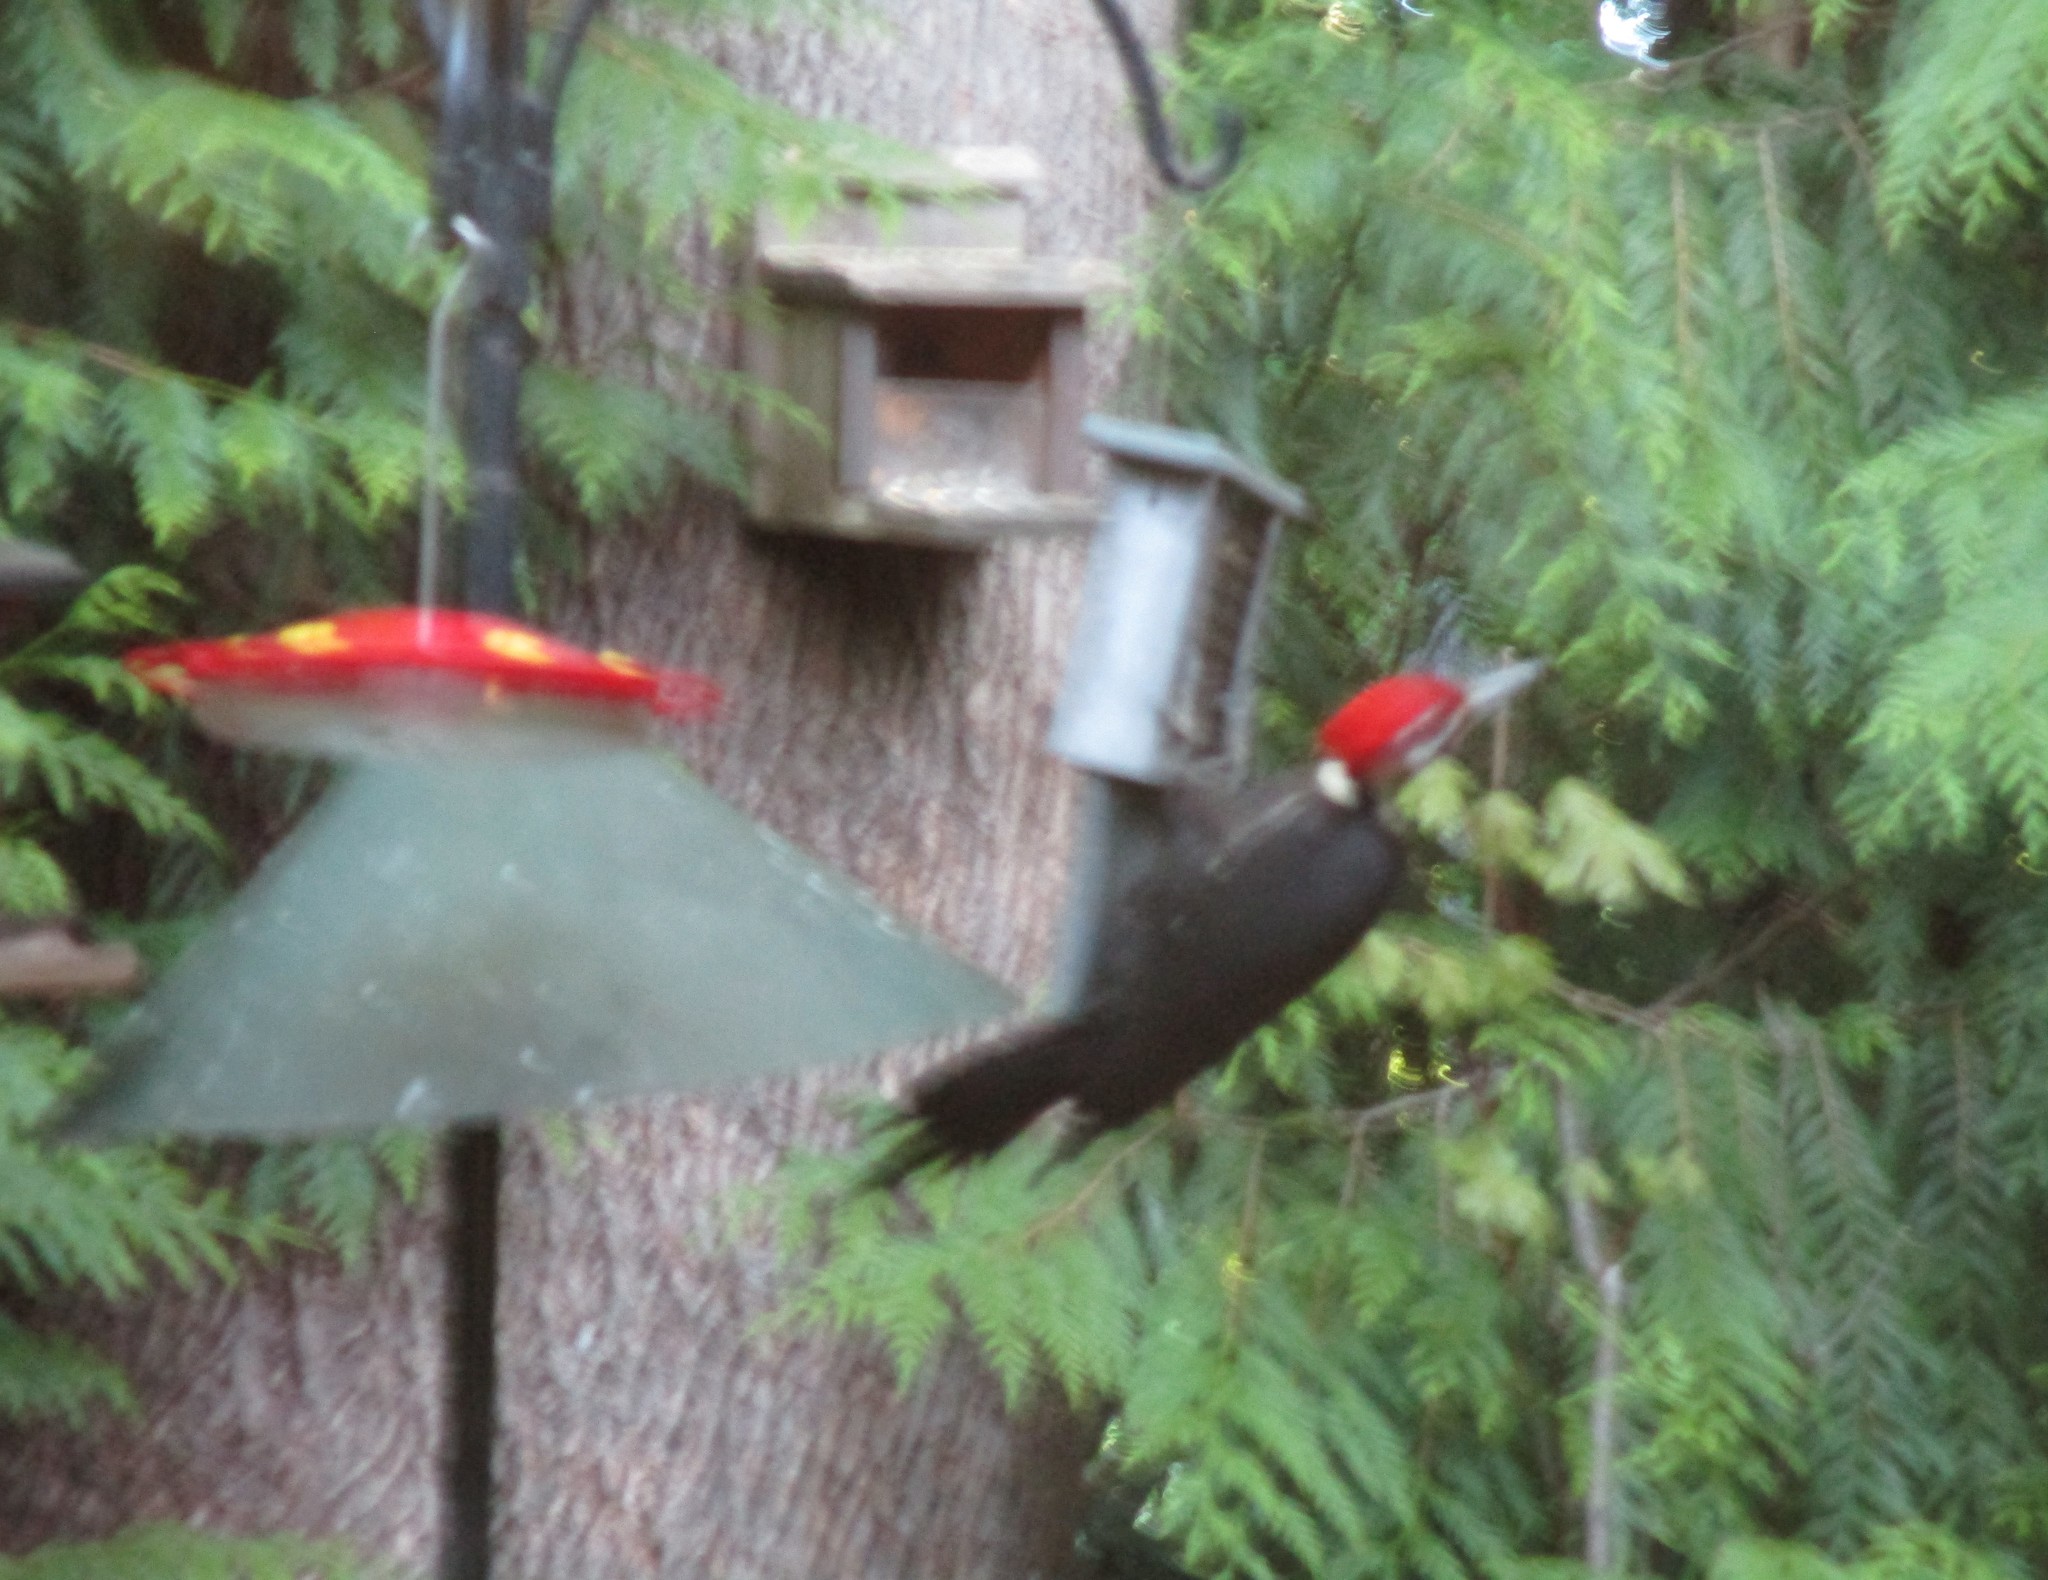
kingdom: Animalia
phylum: Chordata
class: Aves
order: Piciformes
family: Picidae
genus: Dryocopus
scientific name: Dryocopus pileatus
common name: Pileated woodpecker
